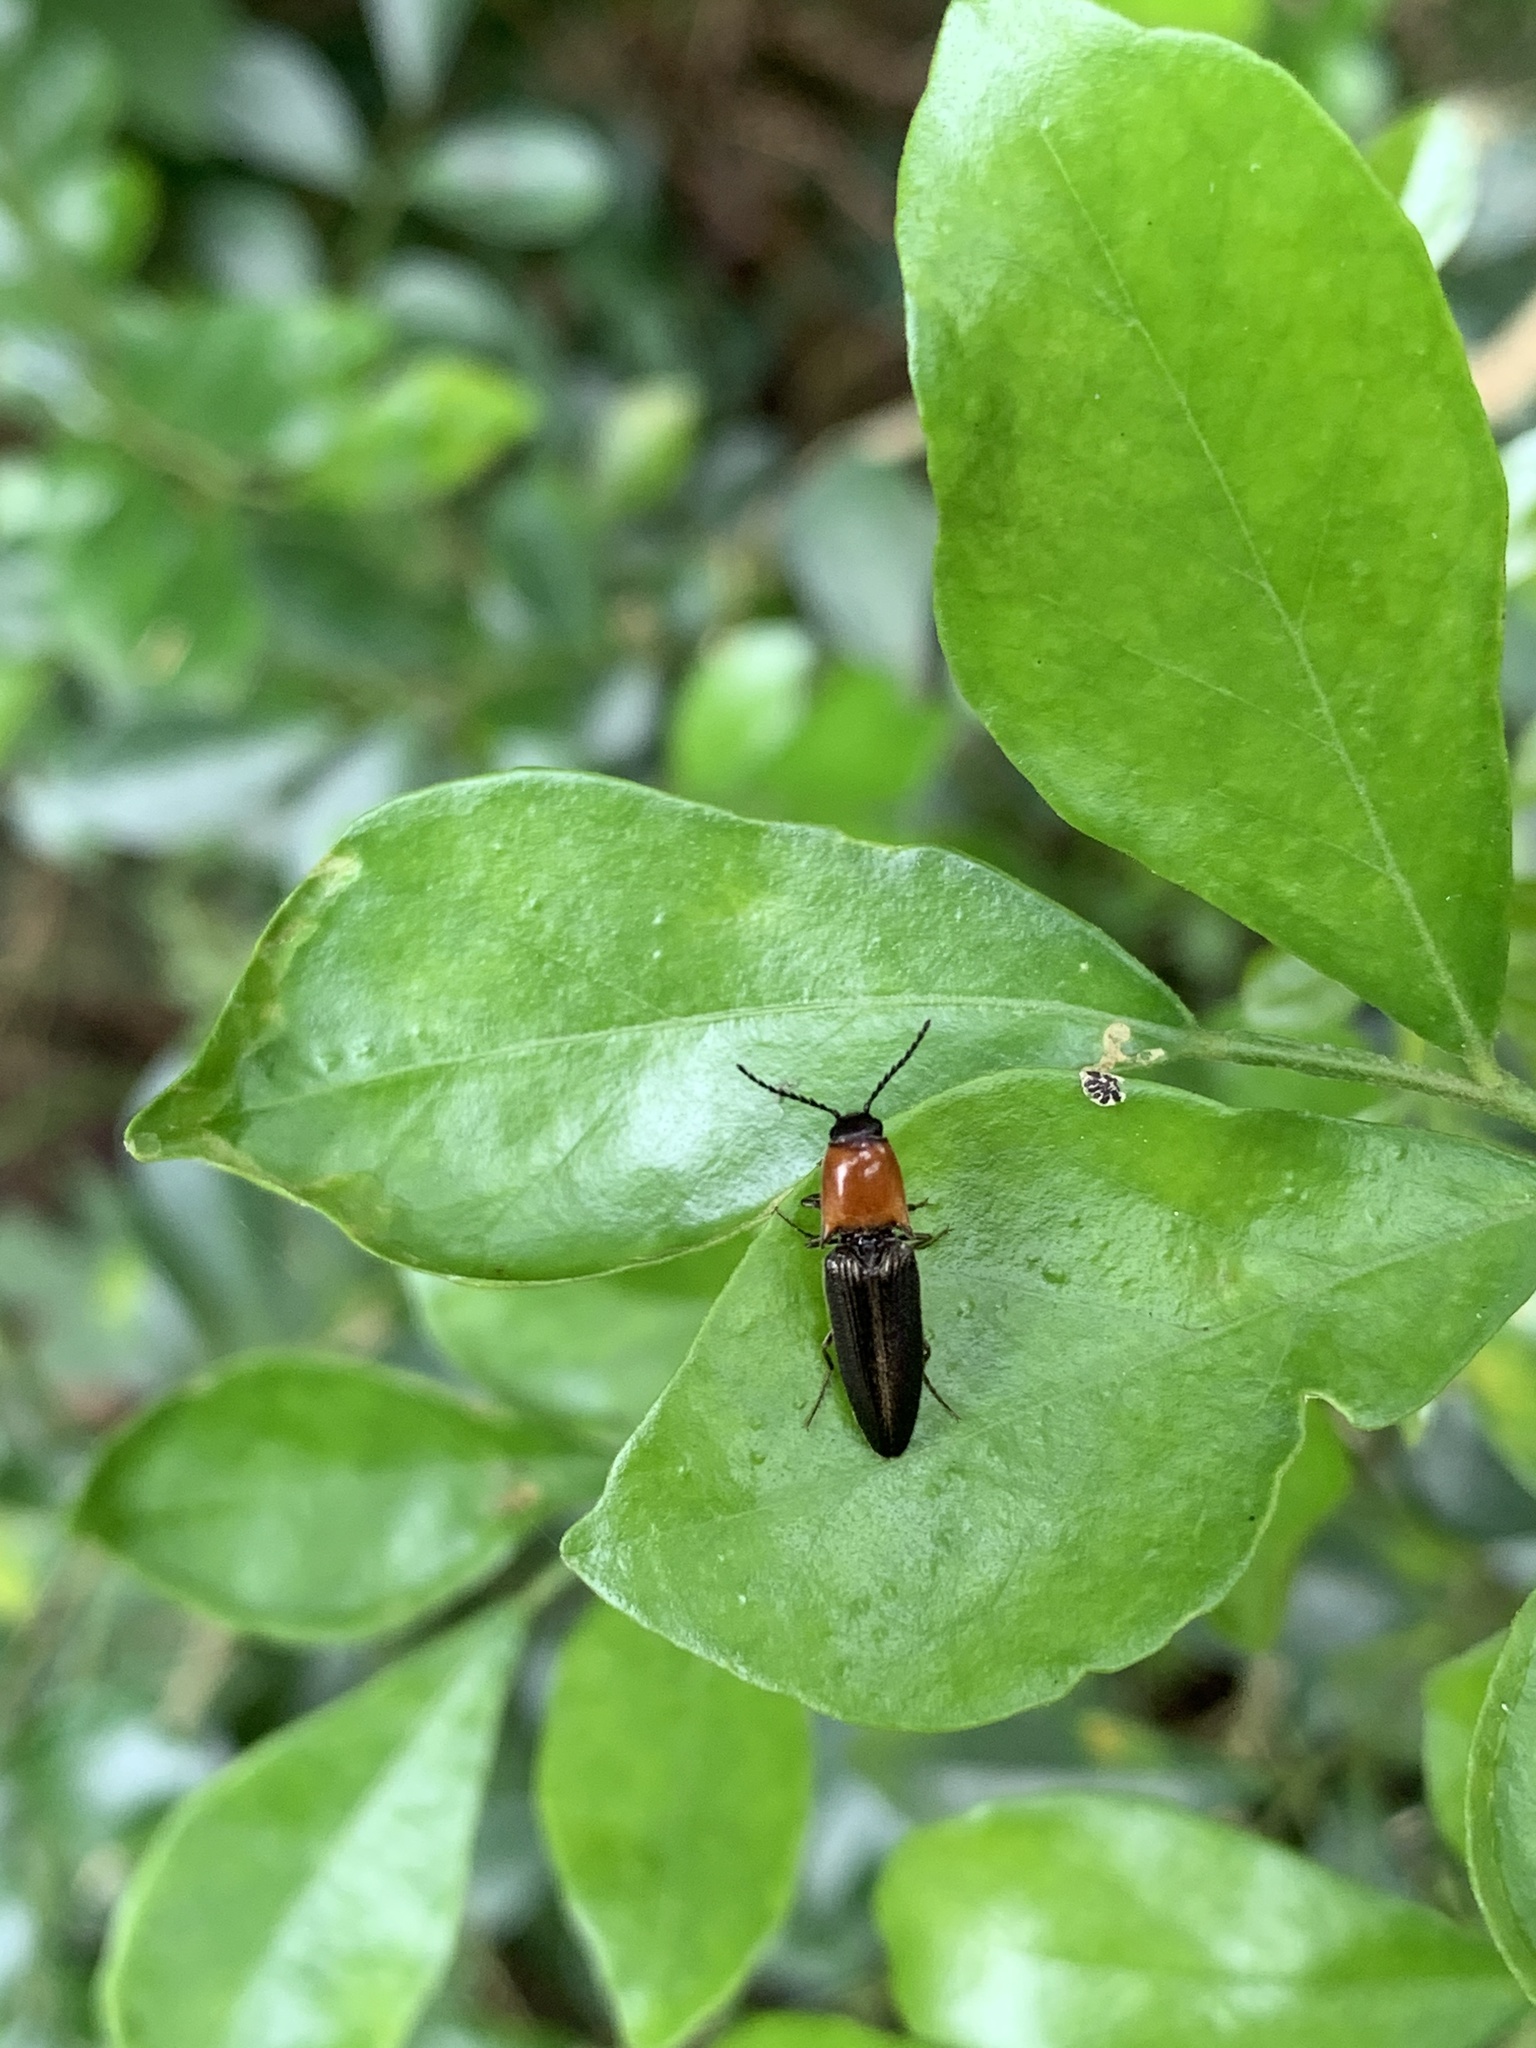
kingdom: Animalia
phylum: Arthropoda
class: Insecta
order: Coleoptera
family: Elateridae
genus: Ludioschema
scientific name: Ludioschema obscuripes
